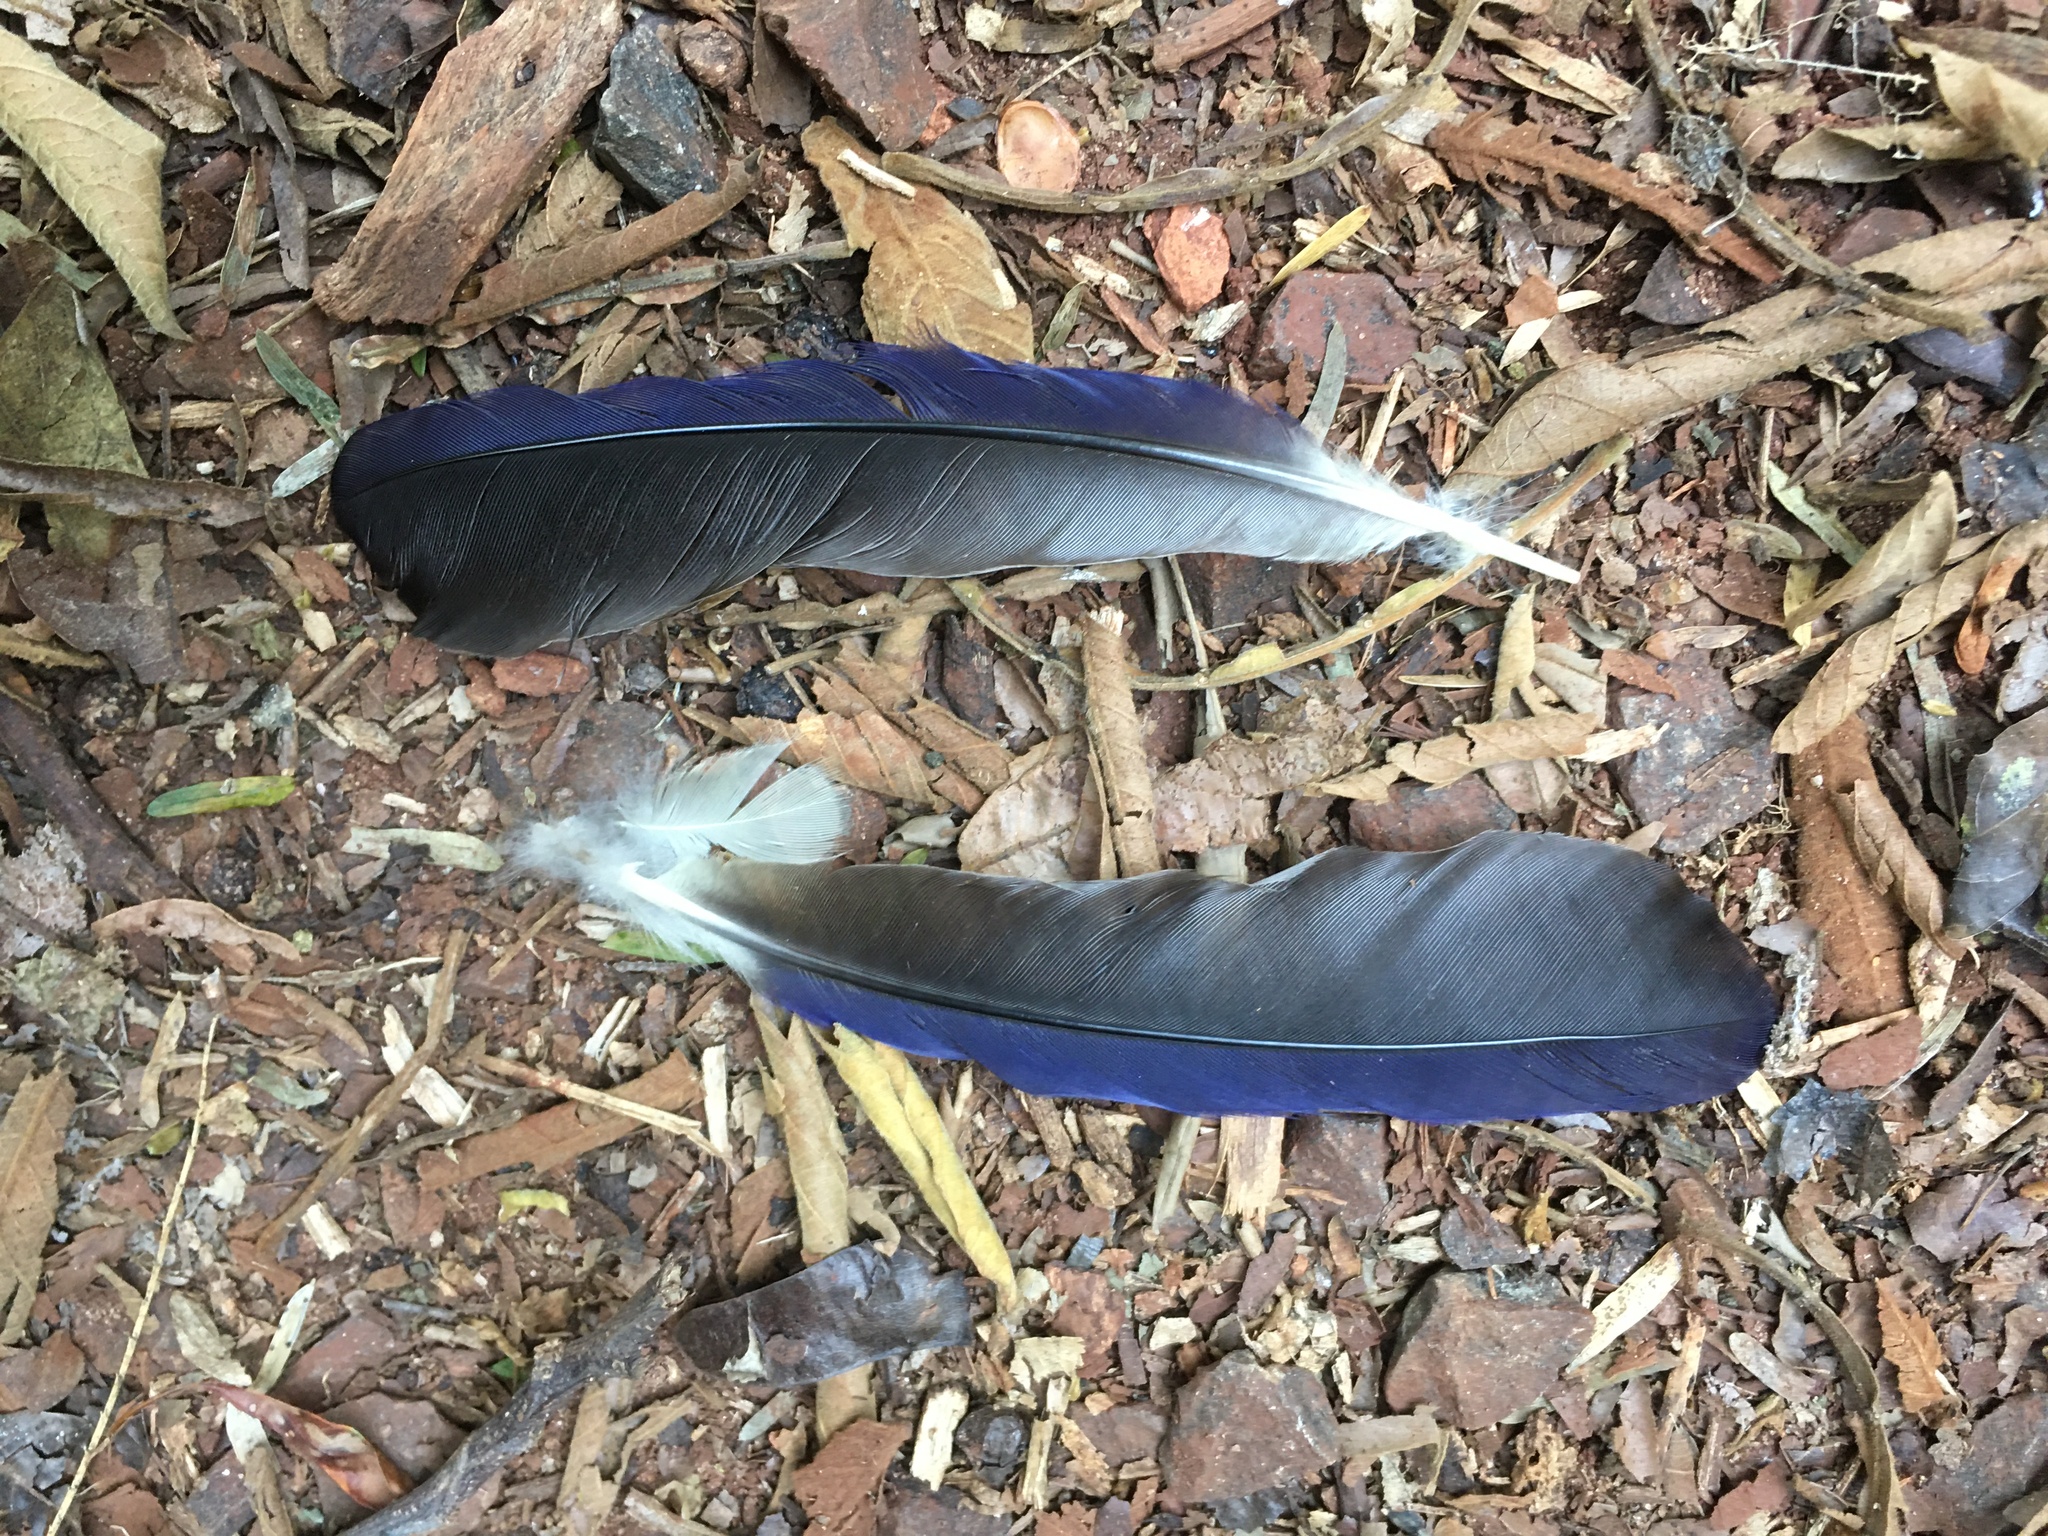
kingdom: Animalia
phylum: Chordata
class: Aves
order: Passeriformes
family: Corvidae
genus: Cyanocorax
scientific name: Cyanocorax chrysops
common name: Plush-crested jay
